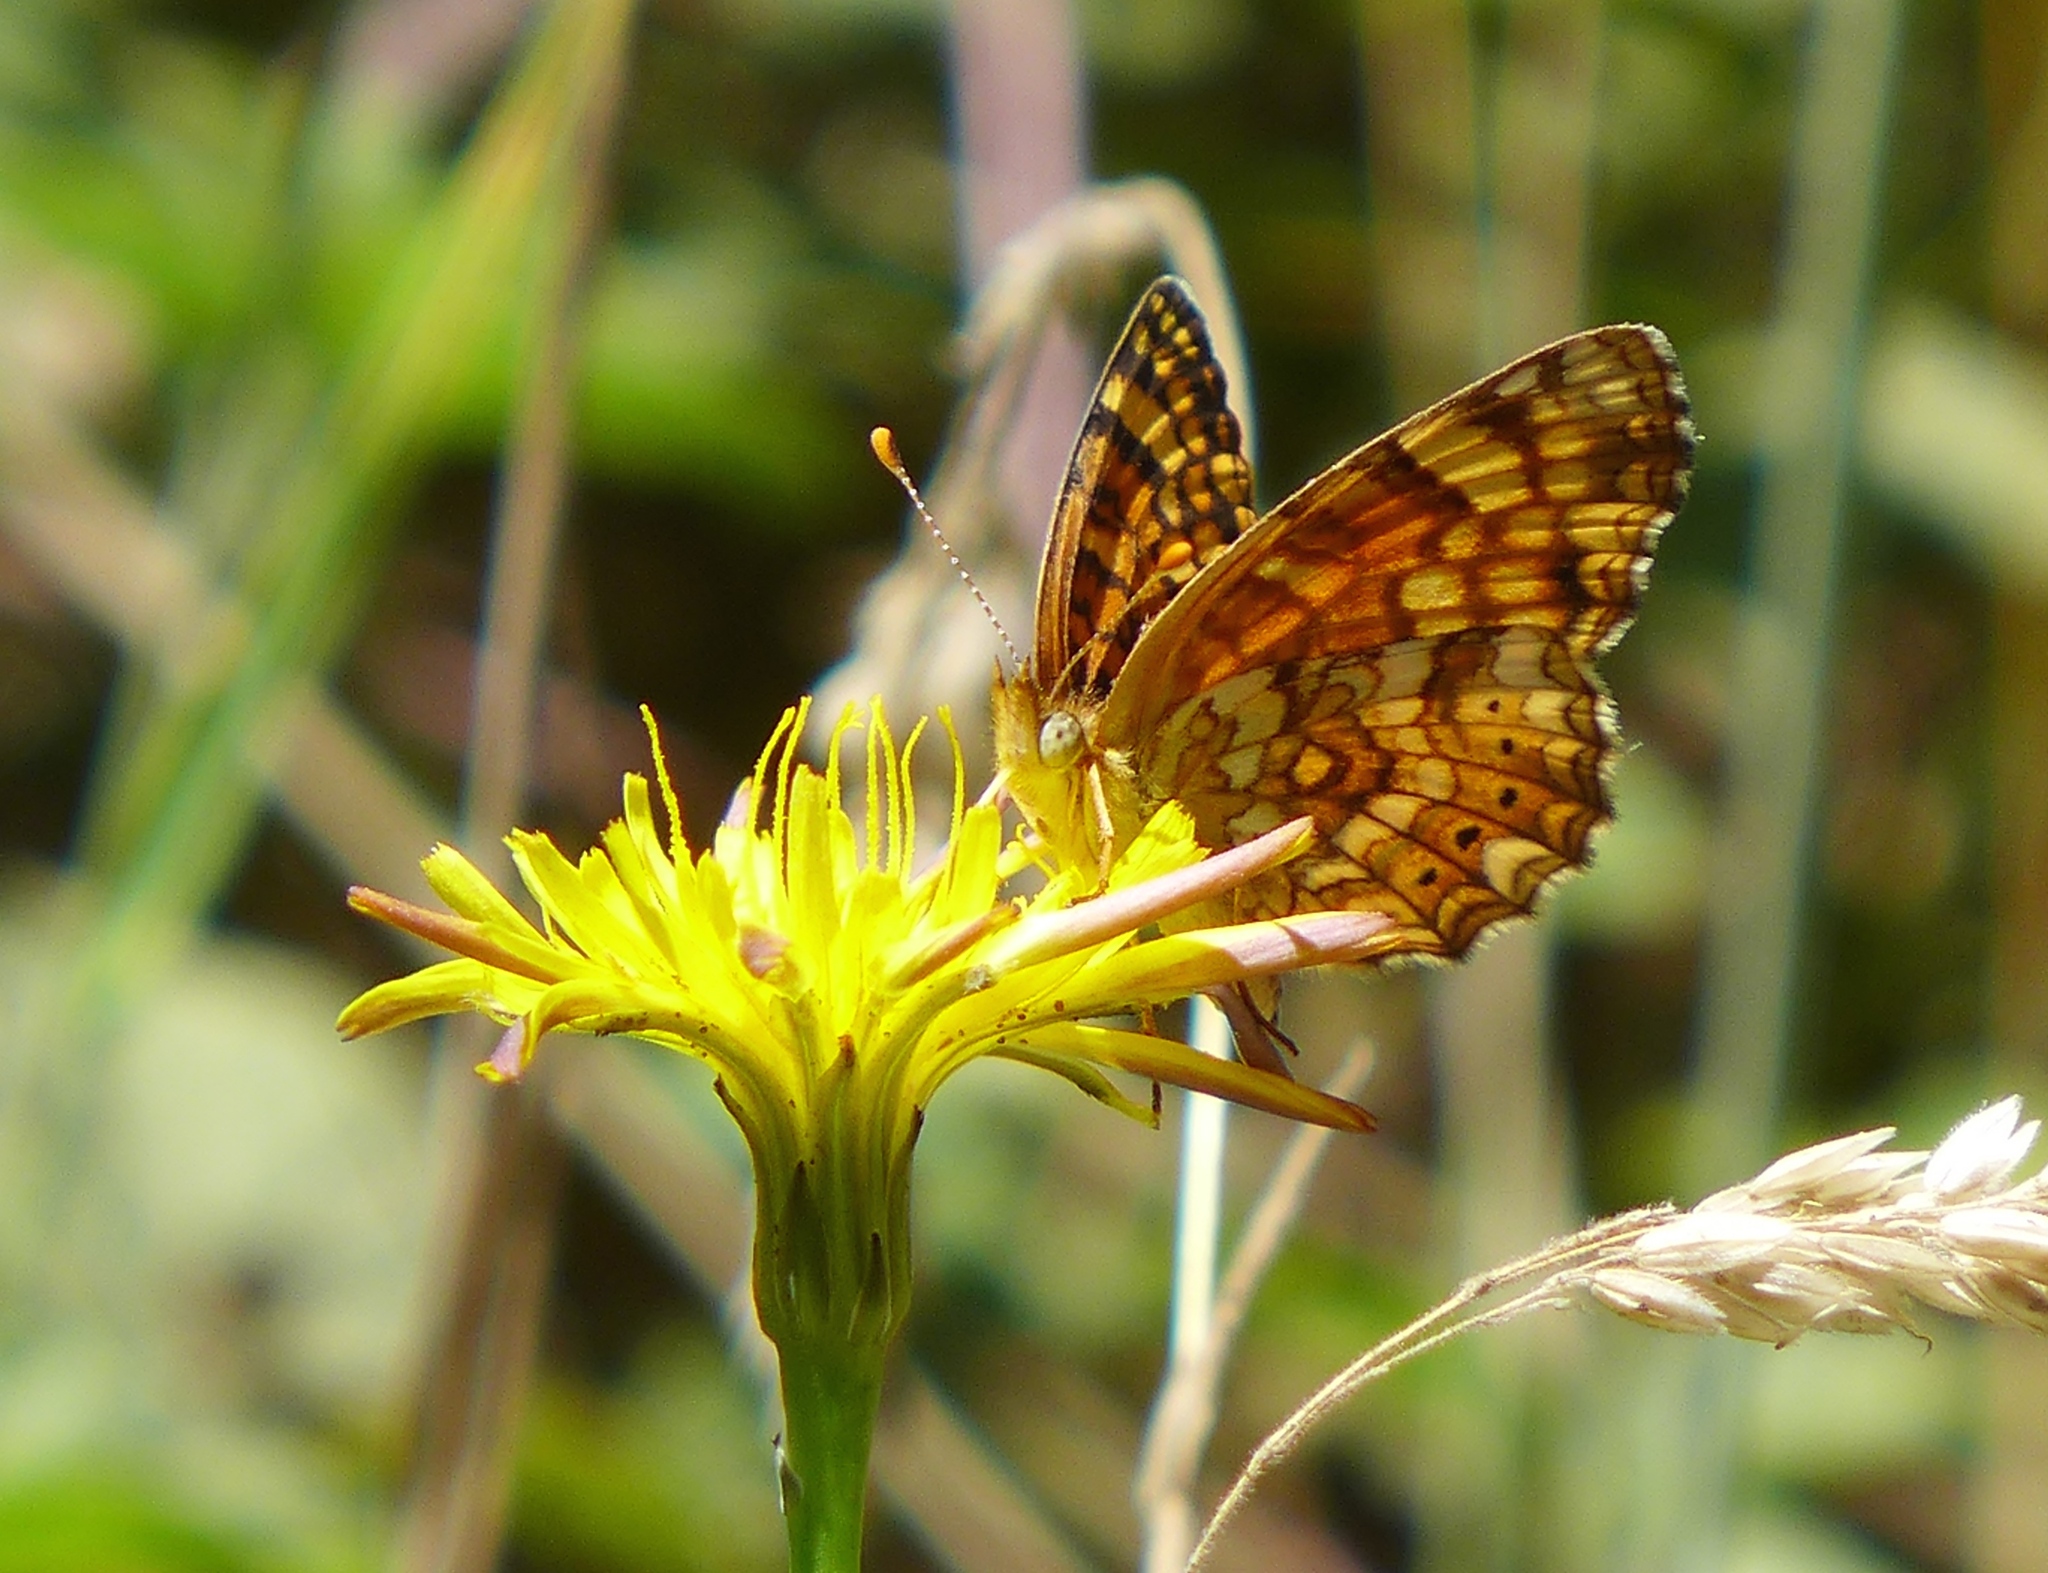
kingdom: Animalia
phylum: Arthropoda
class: Insecta
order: Lepidoptera
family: Nymphalidae
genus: Eresia
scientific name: Eresia aveyrona
